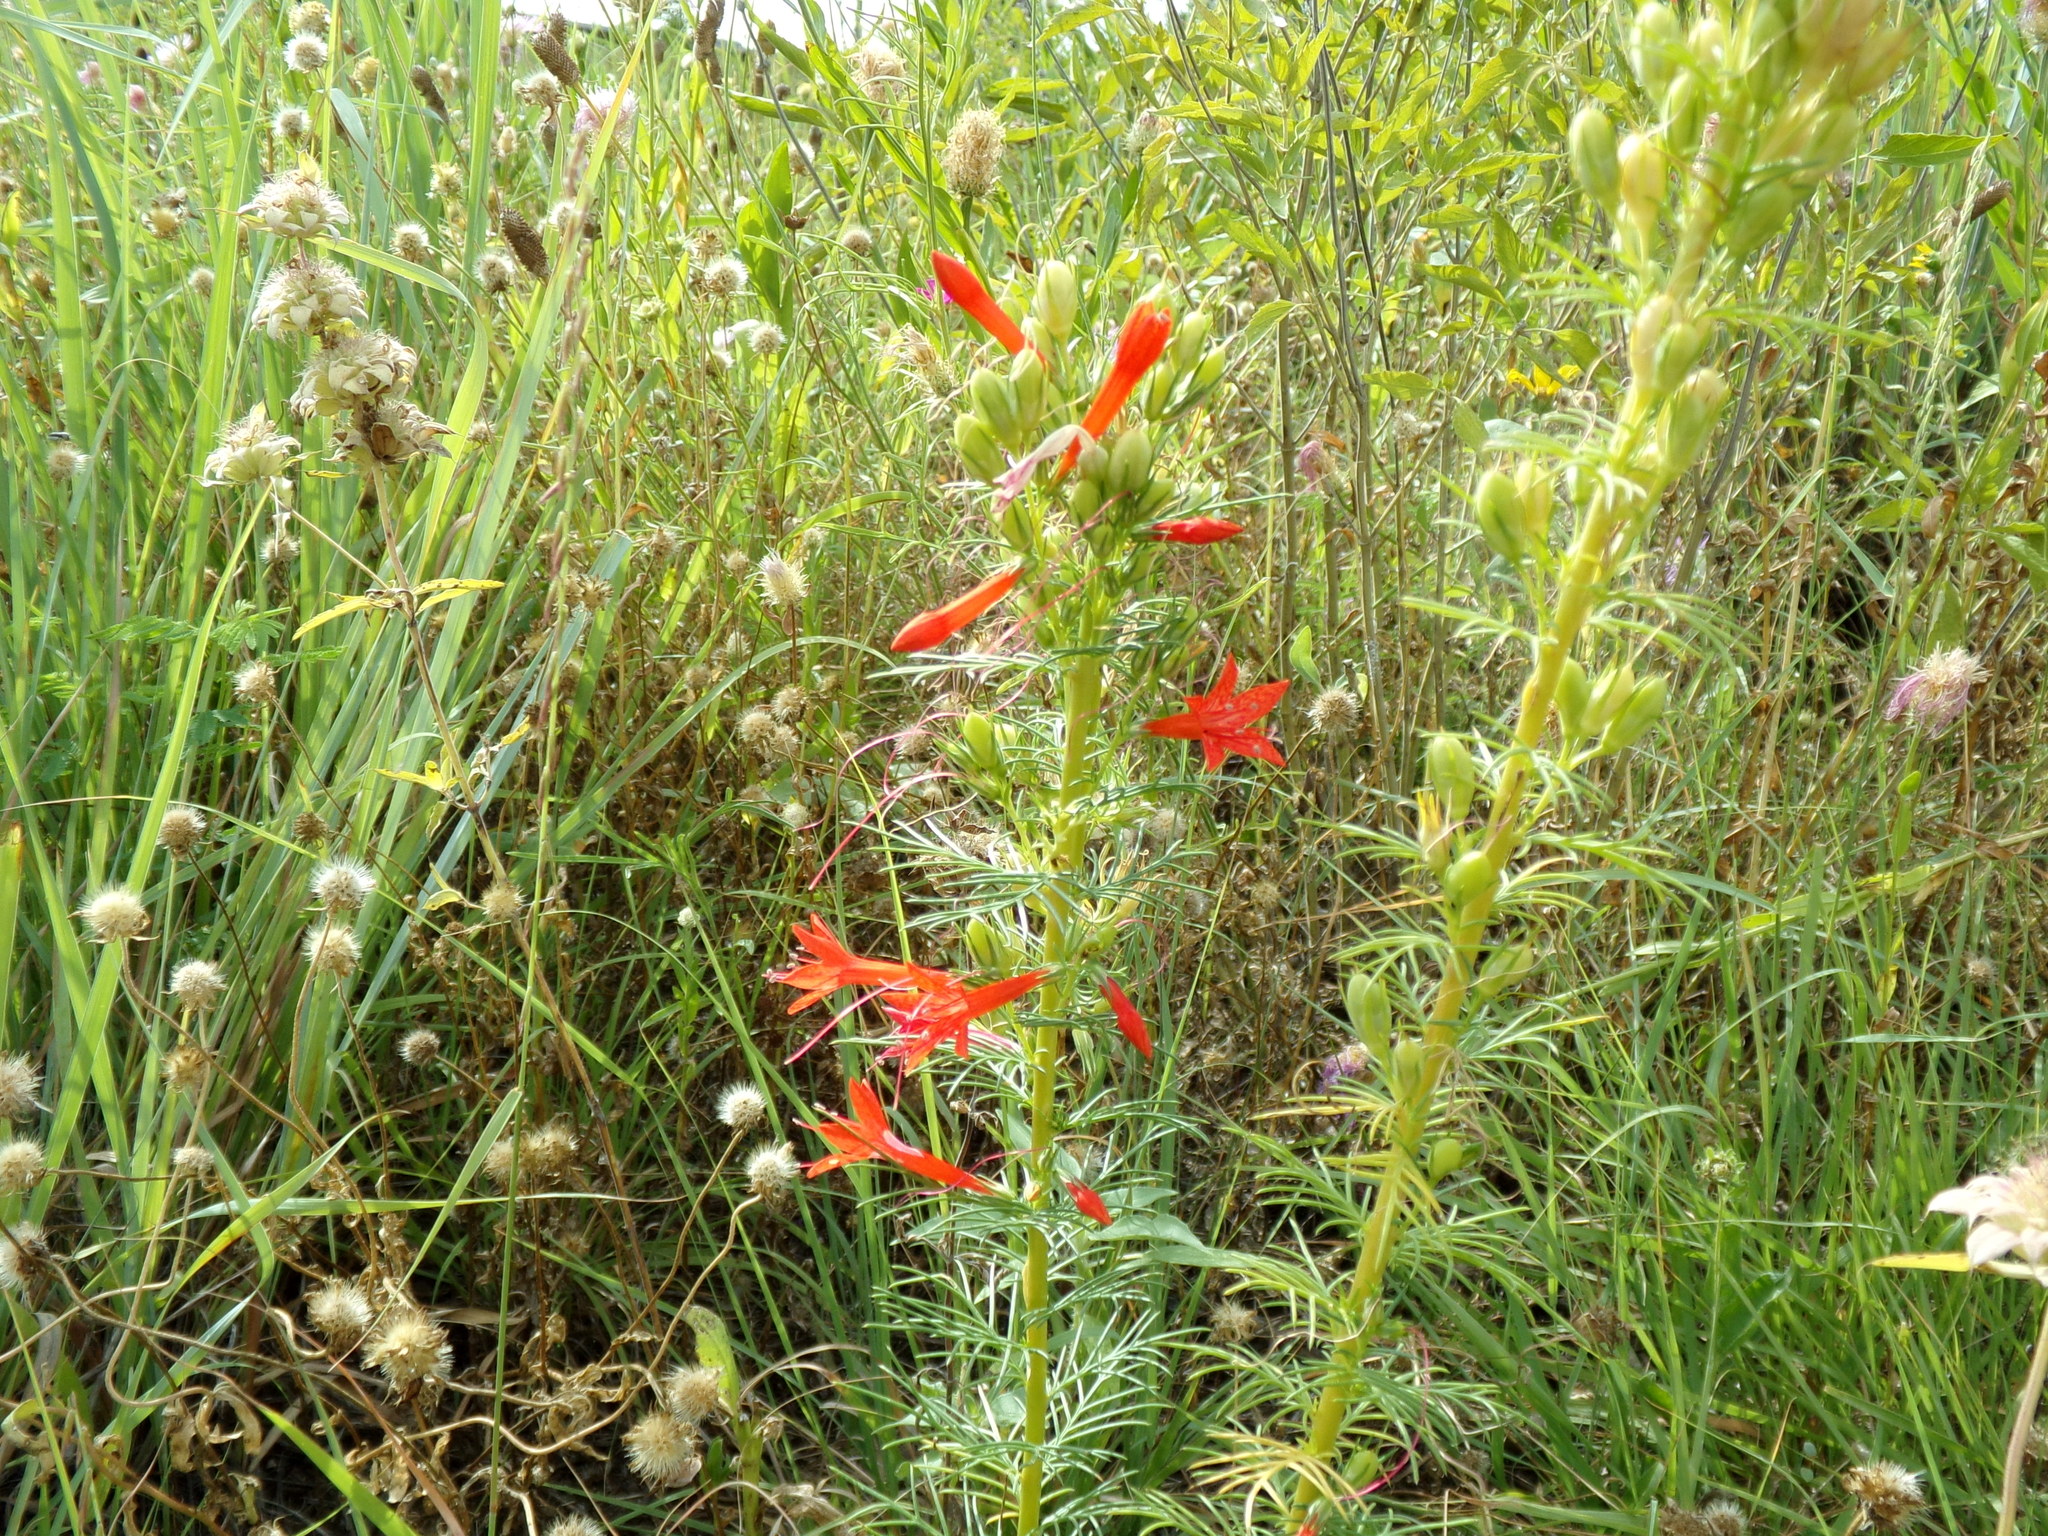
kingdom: Plantae
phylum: Tracheophyta
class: Magnoliopsida
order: Ericales
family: Polemoniaceae
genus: Ipomopsis
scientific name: Ipomopsis rubra
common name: Skyrocket
